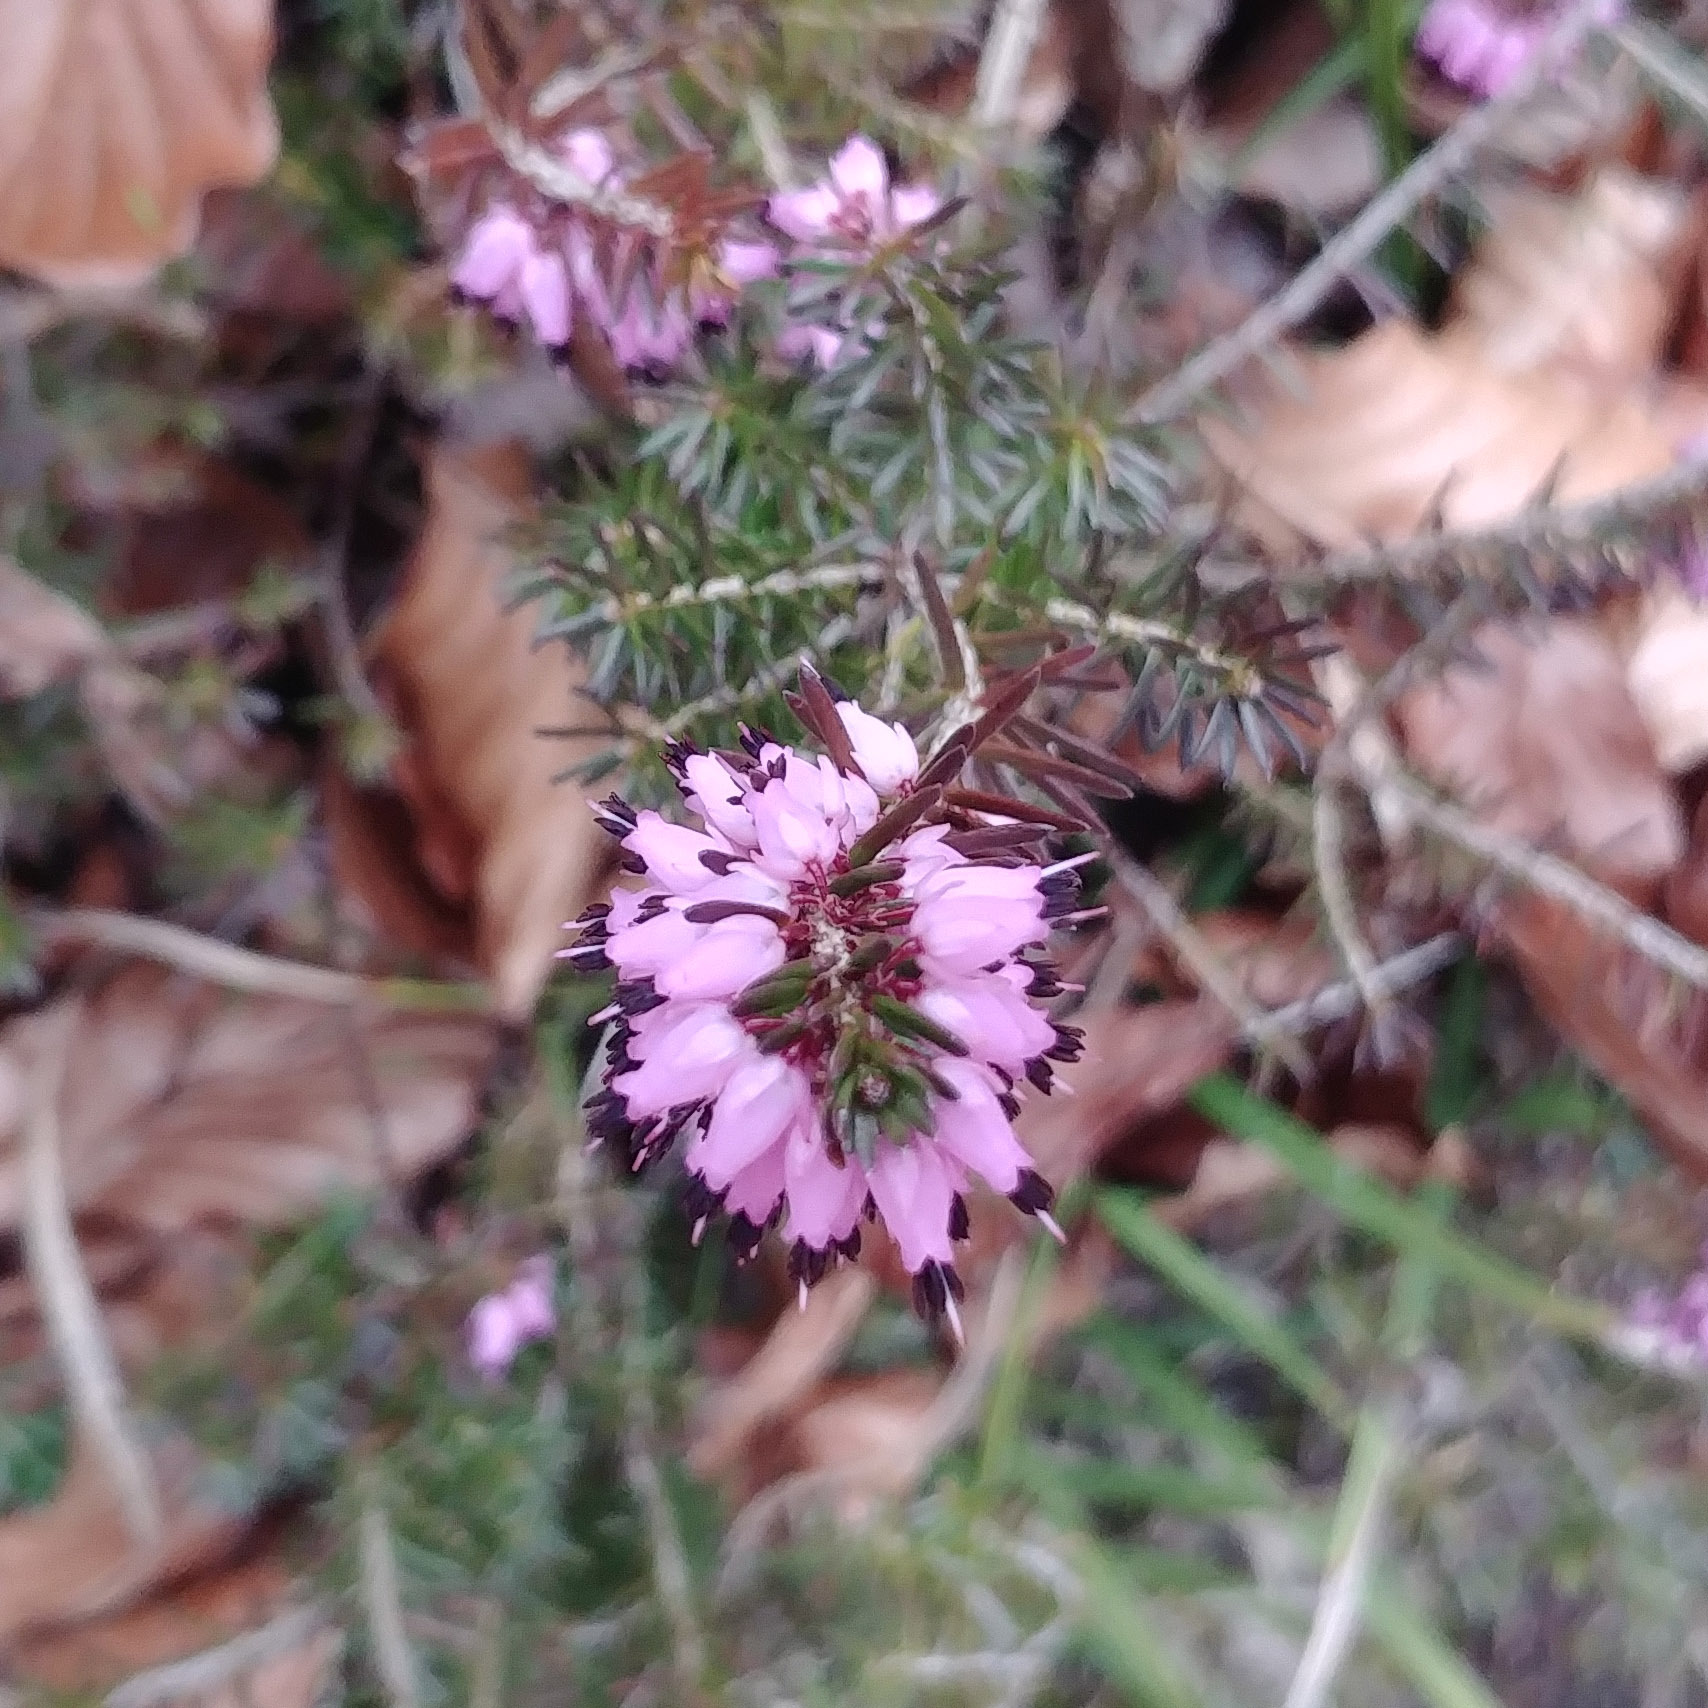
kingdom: Plantae
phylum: Tracheophyta
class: Magnoliopsida
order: Ericales
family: Ericaceae
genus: Erica
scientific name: Erica carnea
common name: Winter heath
